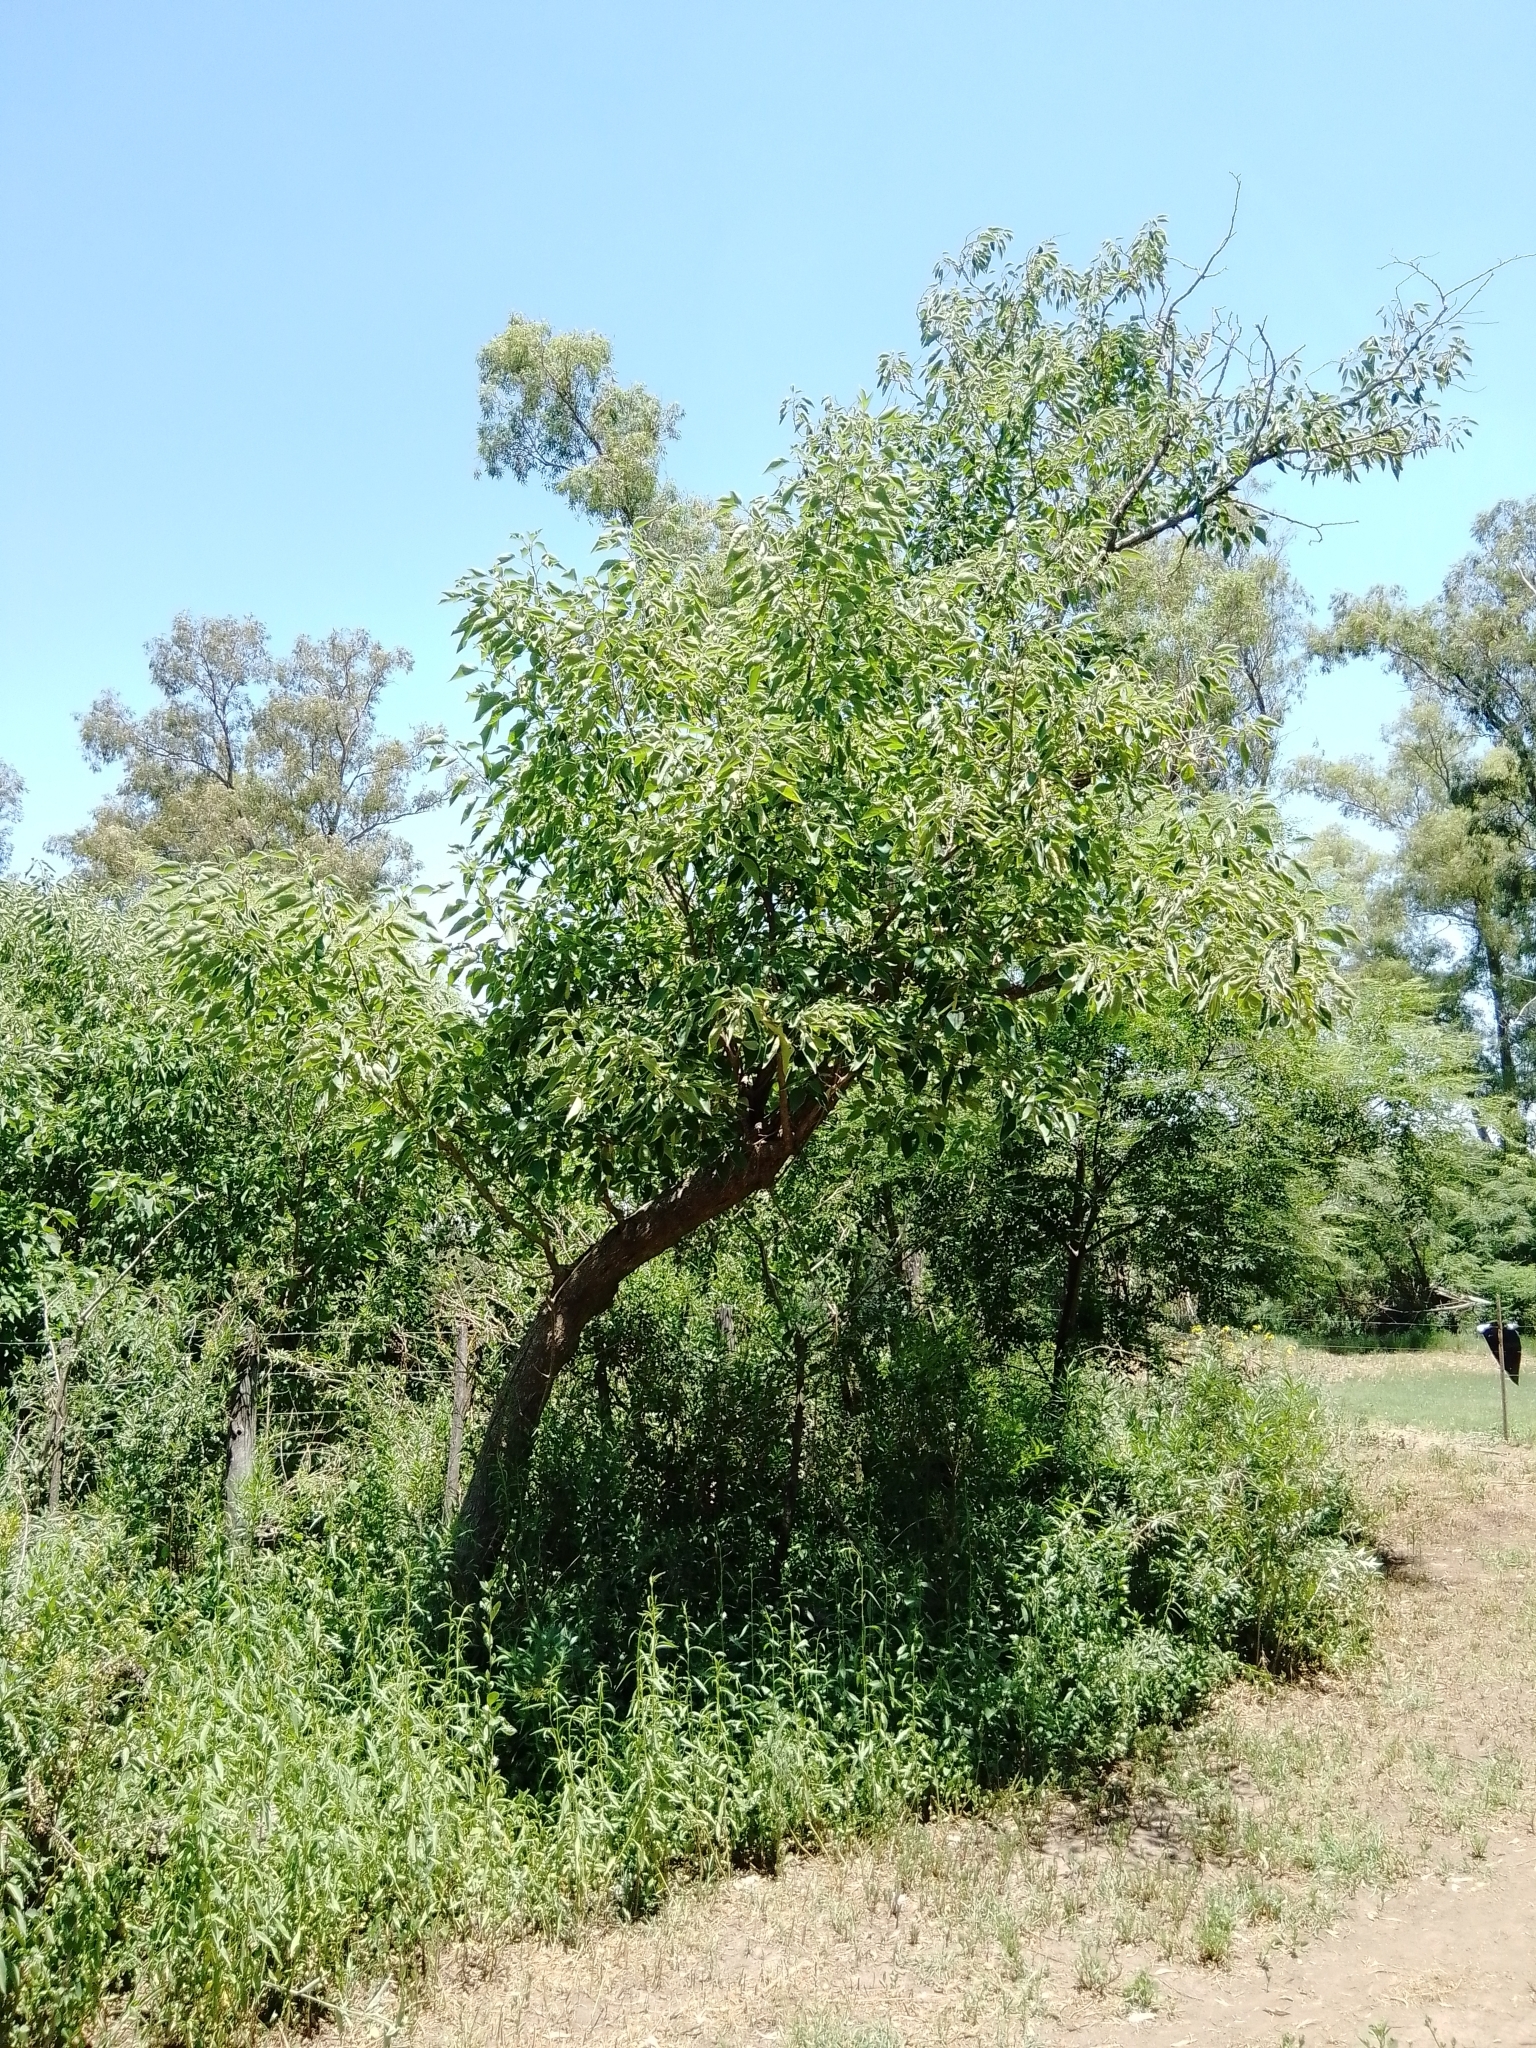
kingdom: Plantae
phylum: Tracheophyta
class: Magnoliopsida
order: Rosales
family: Moraceae
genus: Broussonetia
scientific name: Broussonetia papyrifera
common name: Paper mulberry
